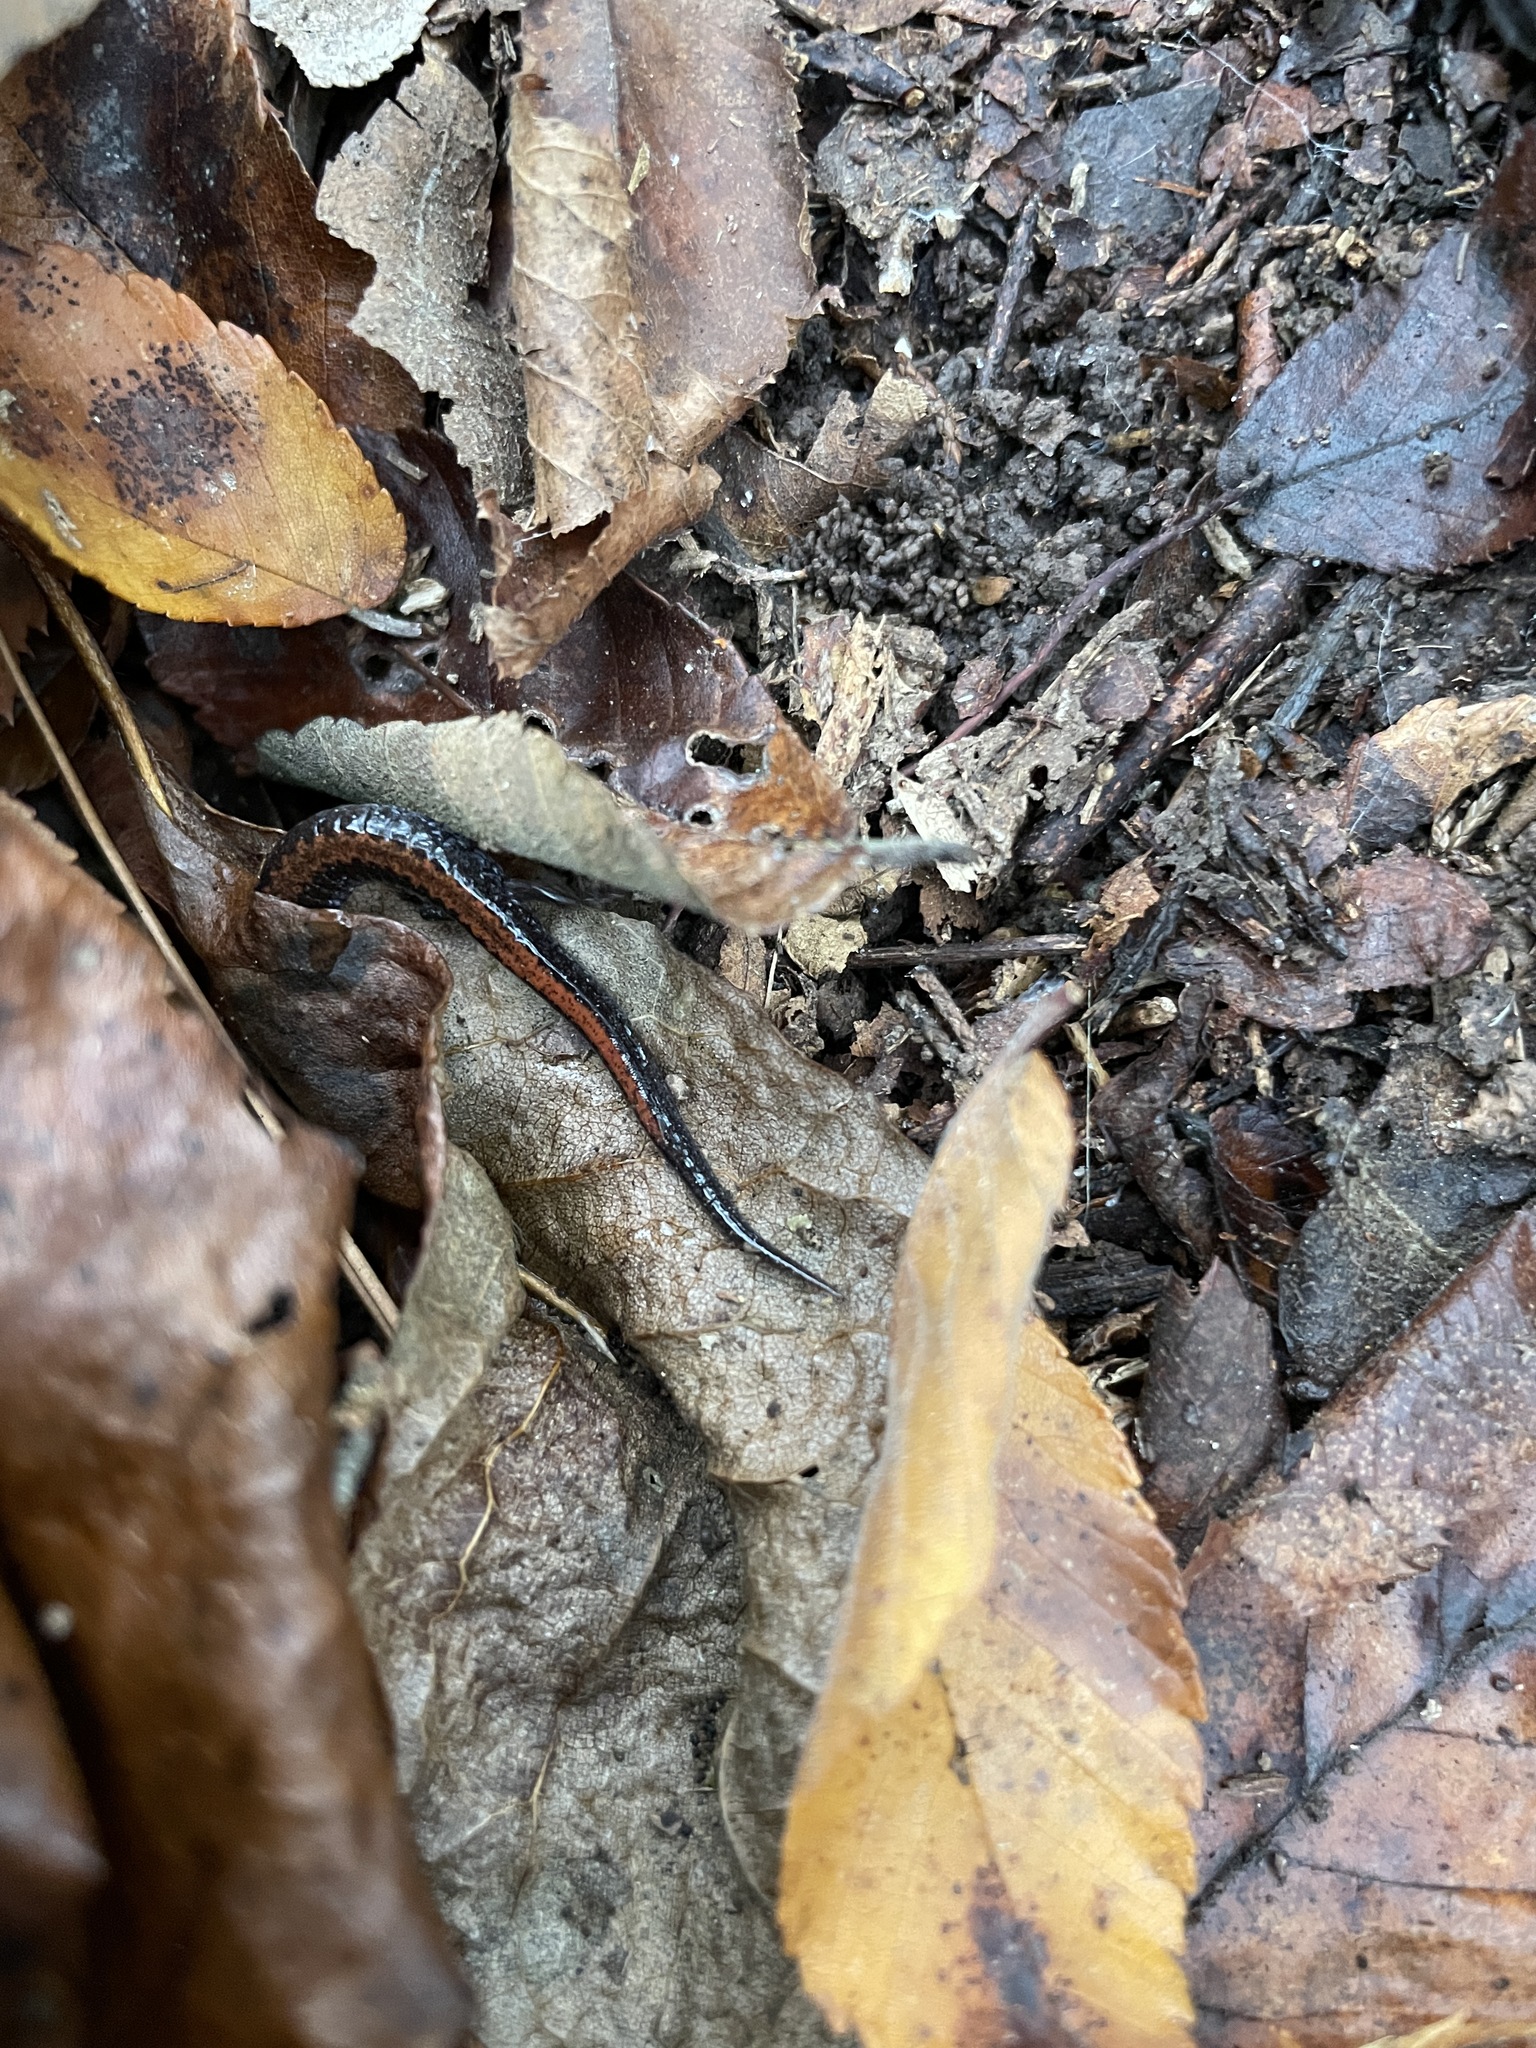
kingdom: Animalia
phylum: Chordata
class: Amphibia
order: Caudata
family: Plethodontidae
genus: Plethodon
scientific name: Plethodon serratus
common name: Southern red-backed salamander
